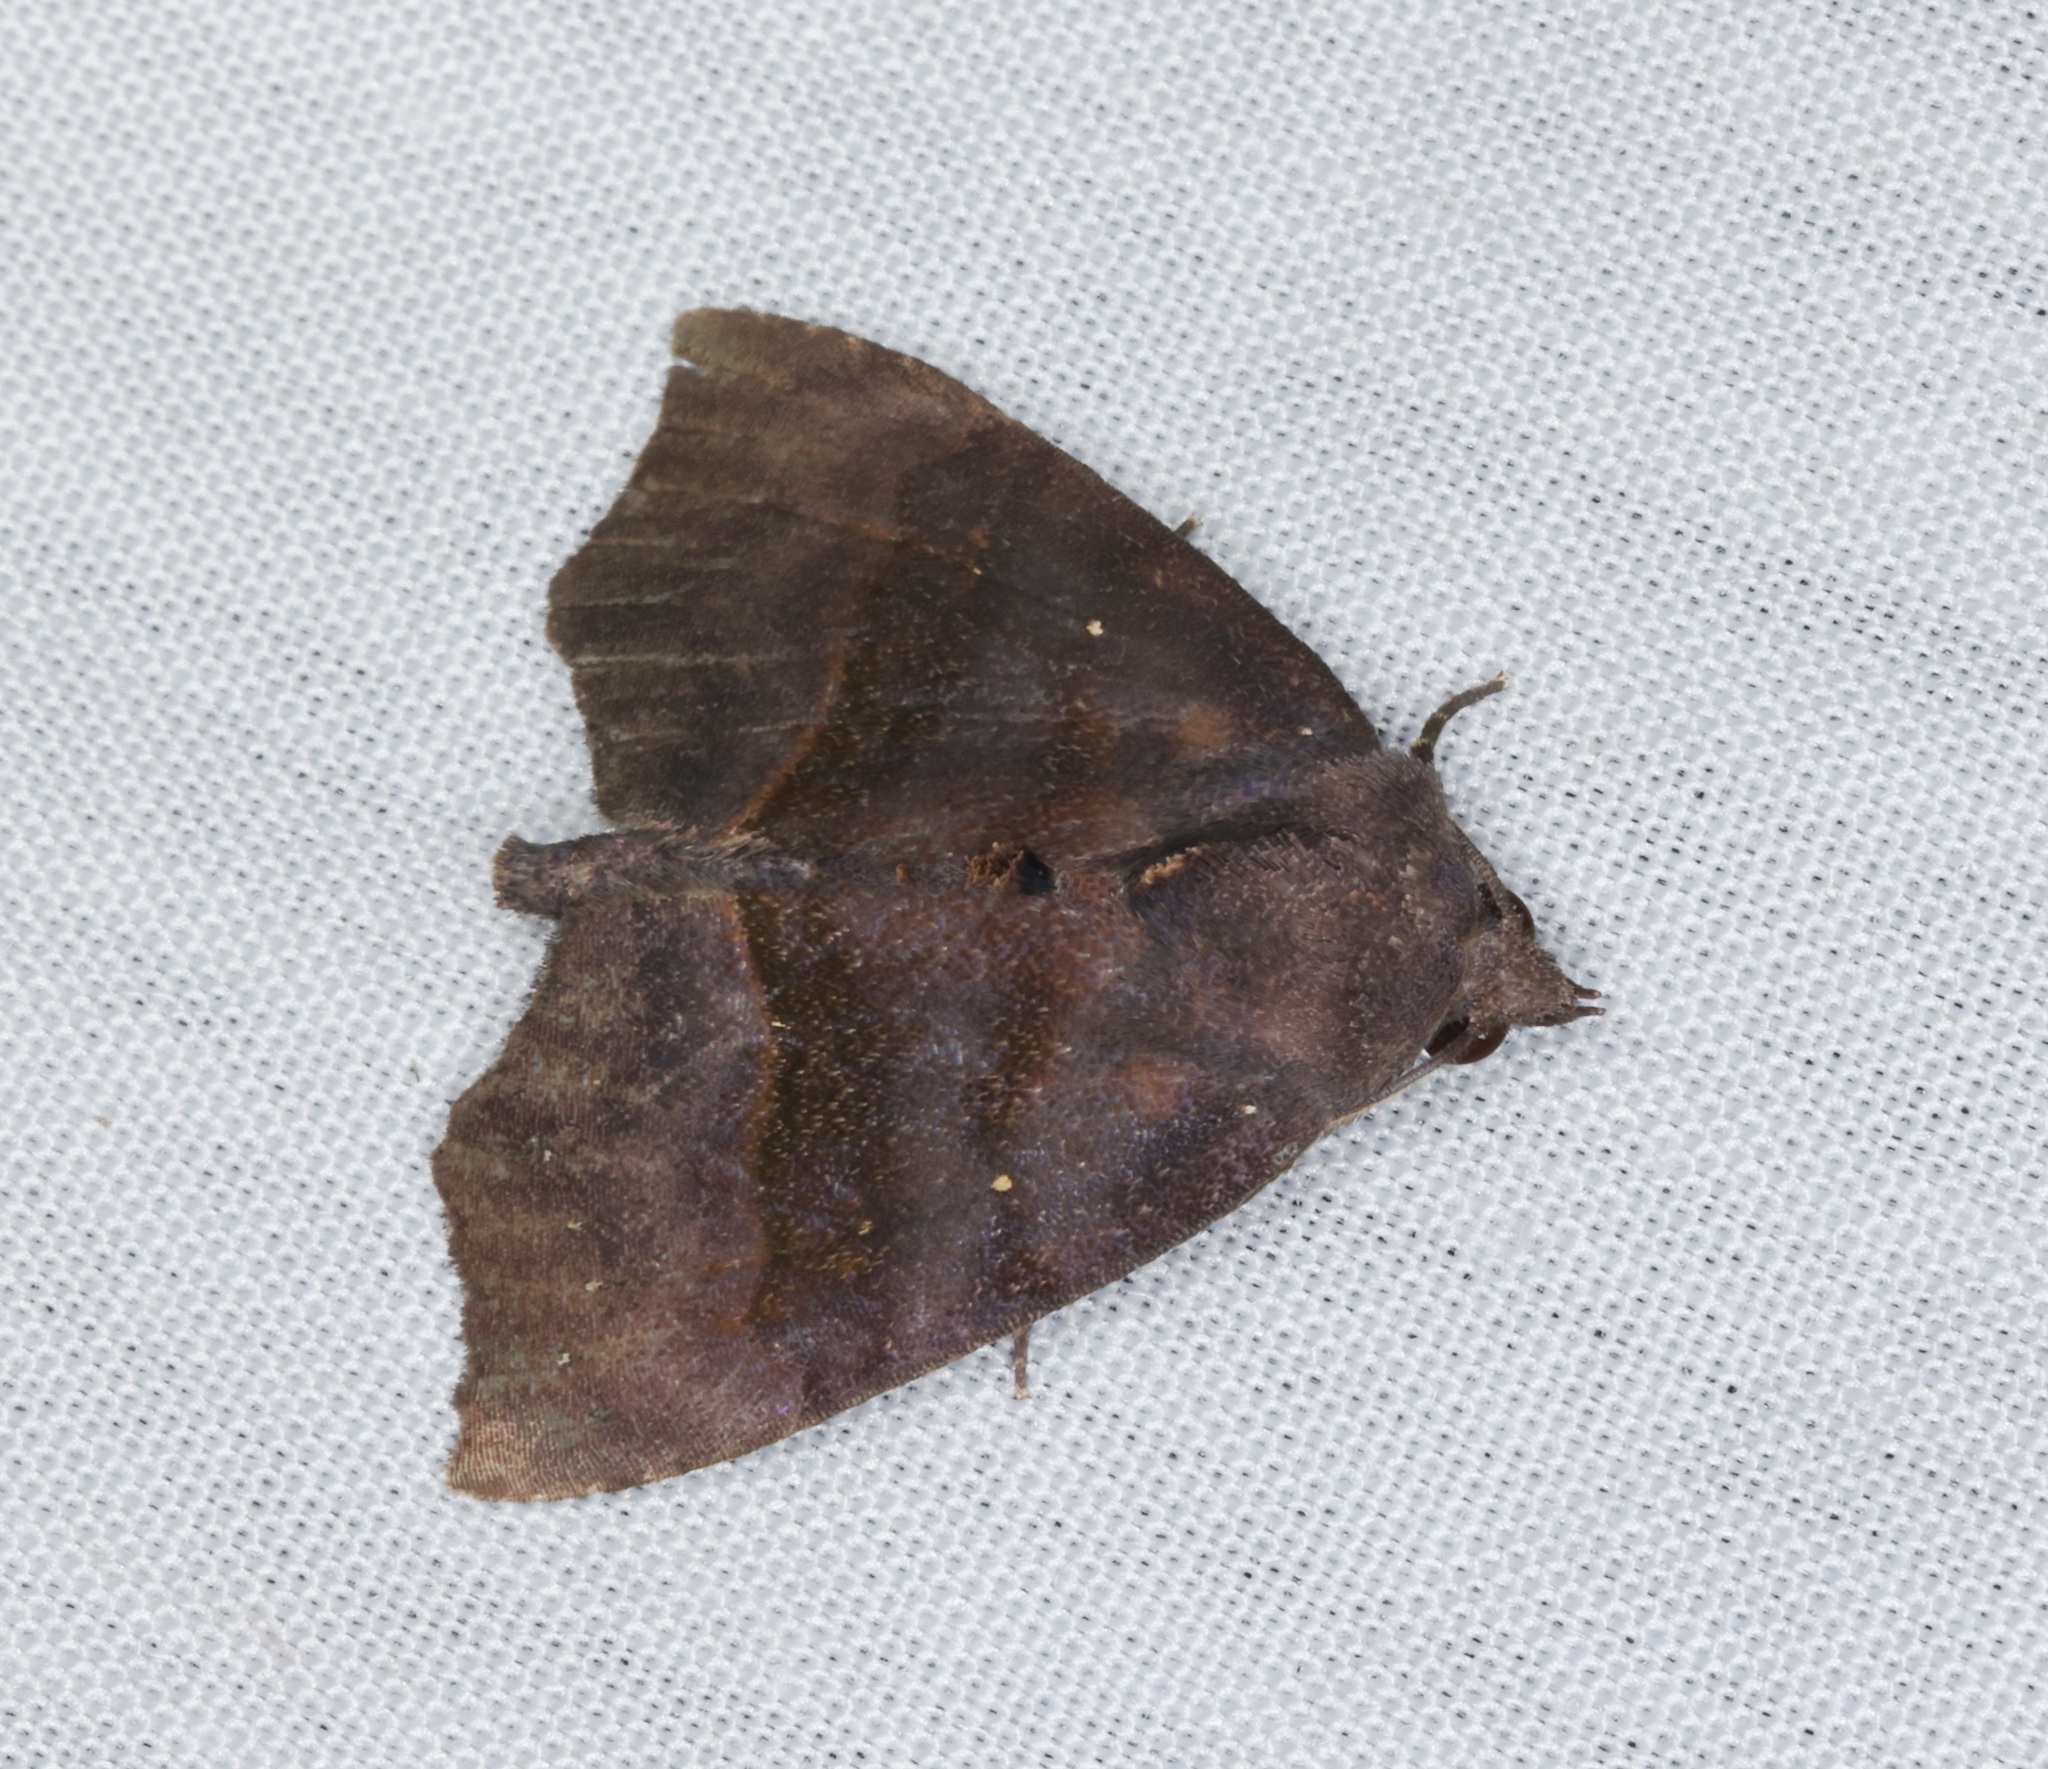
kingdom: Animalia
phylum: Arthropoda
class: Insecta
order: Lepidoptera
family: Erebidae
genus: Thalatta
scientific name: Thalatta fasciosa
